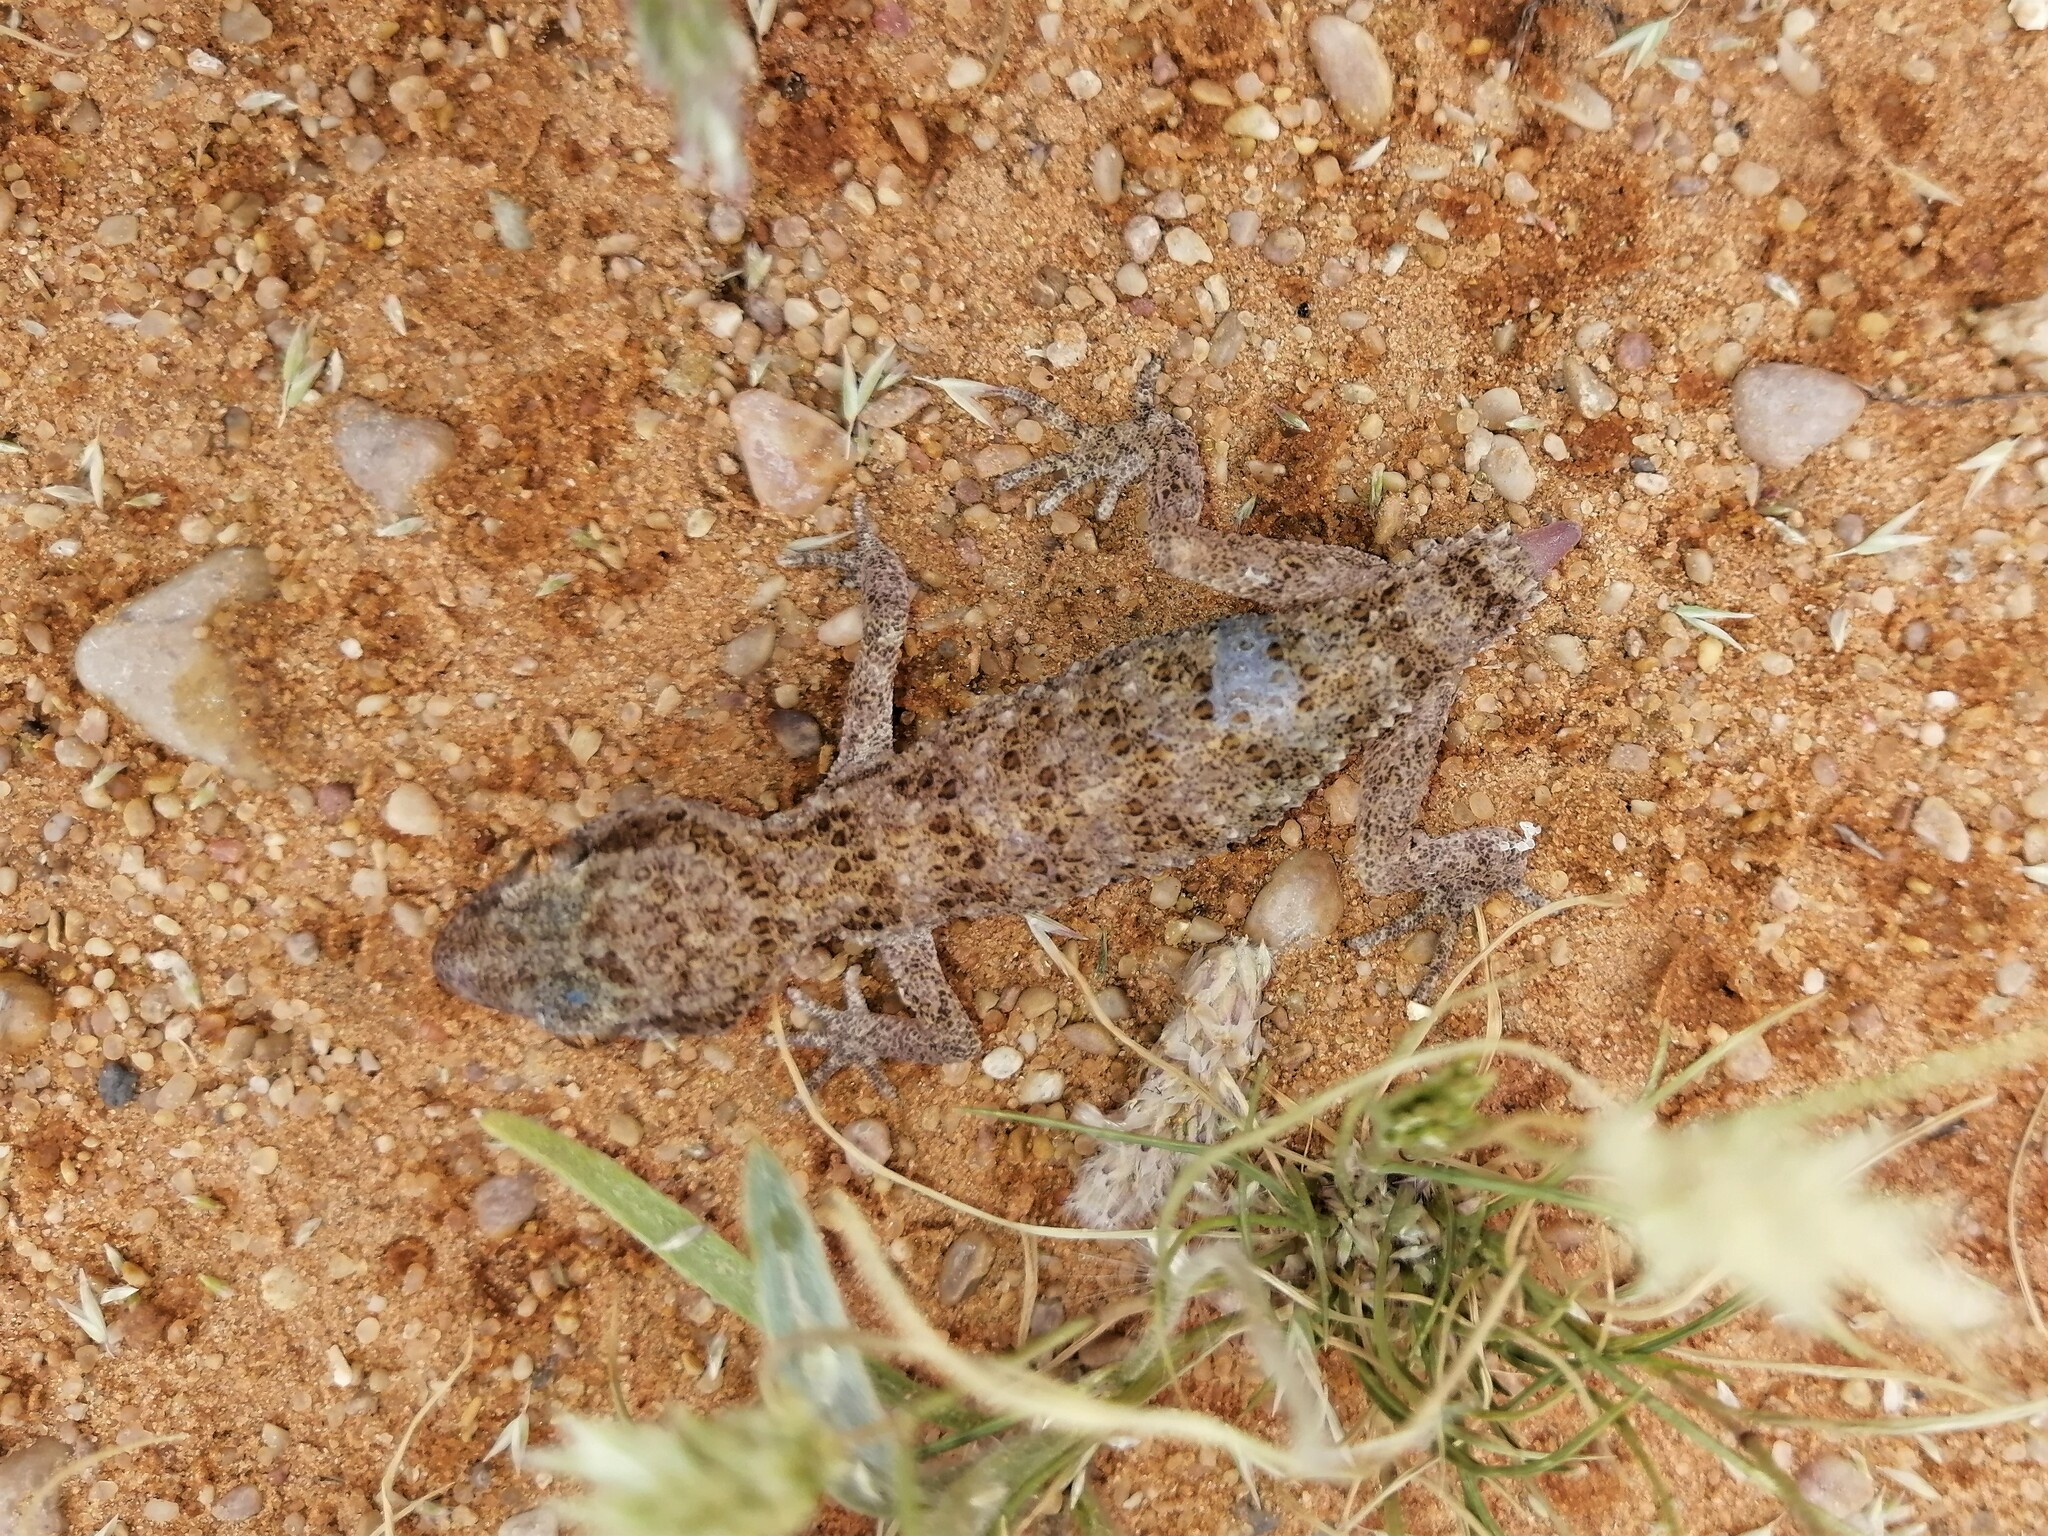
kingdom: Animalia
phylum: Chordata
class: Squamata
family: Gekkonidae
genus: Bunopus
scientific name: Bunopus tuberculatus
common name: Southern tuberculated gecko
